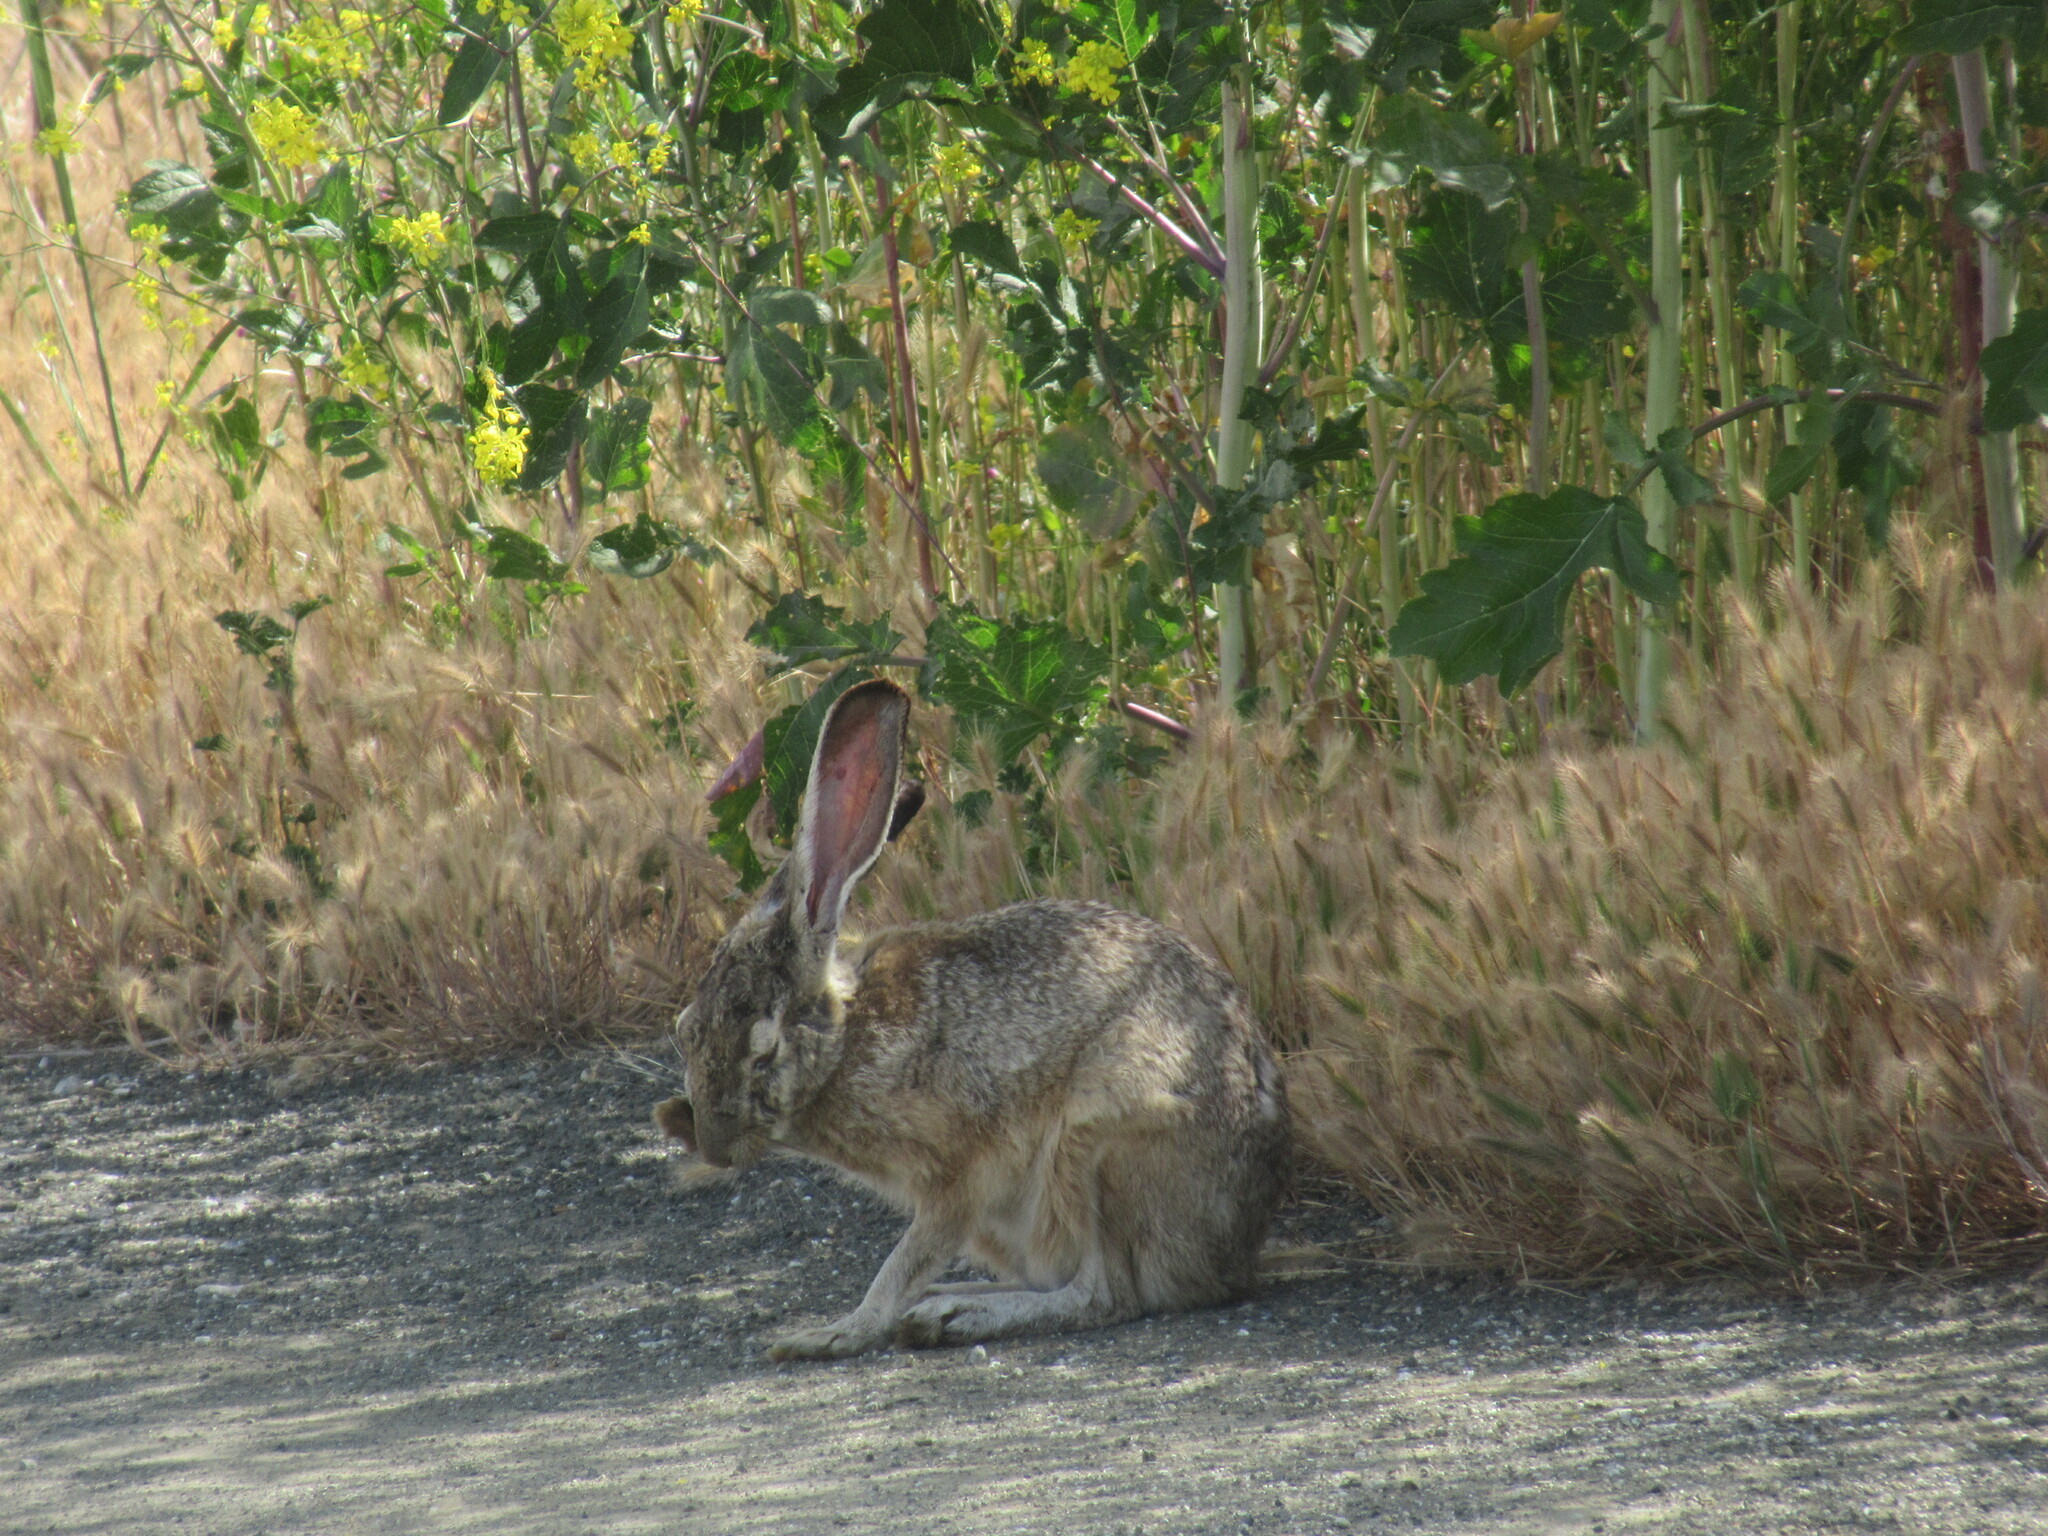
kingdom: Animalia
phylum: Chordata
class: Mammalia
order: Lagomorpha
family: Leporidae
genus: Lepus
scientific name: Lepus californicus
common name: Black-tailed jackrabbit
